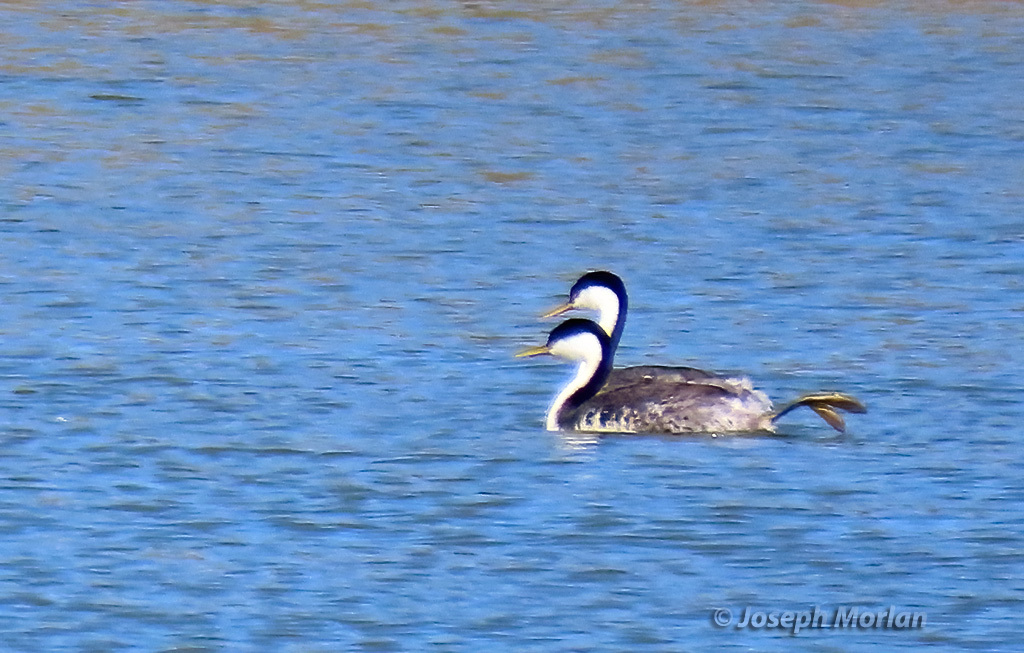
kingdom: Animalia
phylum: Chordata
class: Aves
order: Podicipediformes
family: Podicipedidae
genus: Aechmophorus
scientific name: Aechmophorus occidentalis
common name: Western grebe
